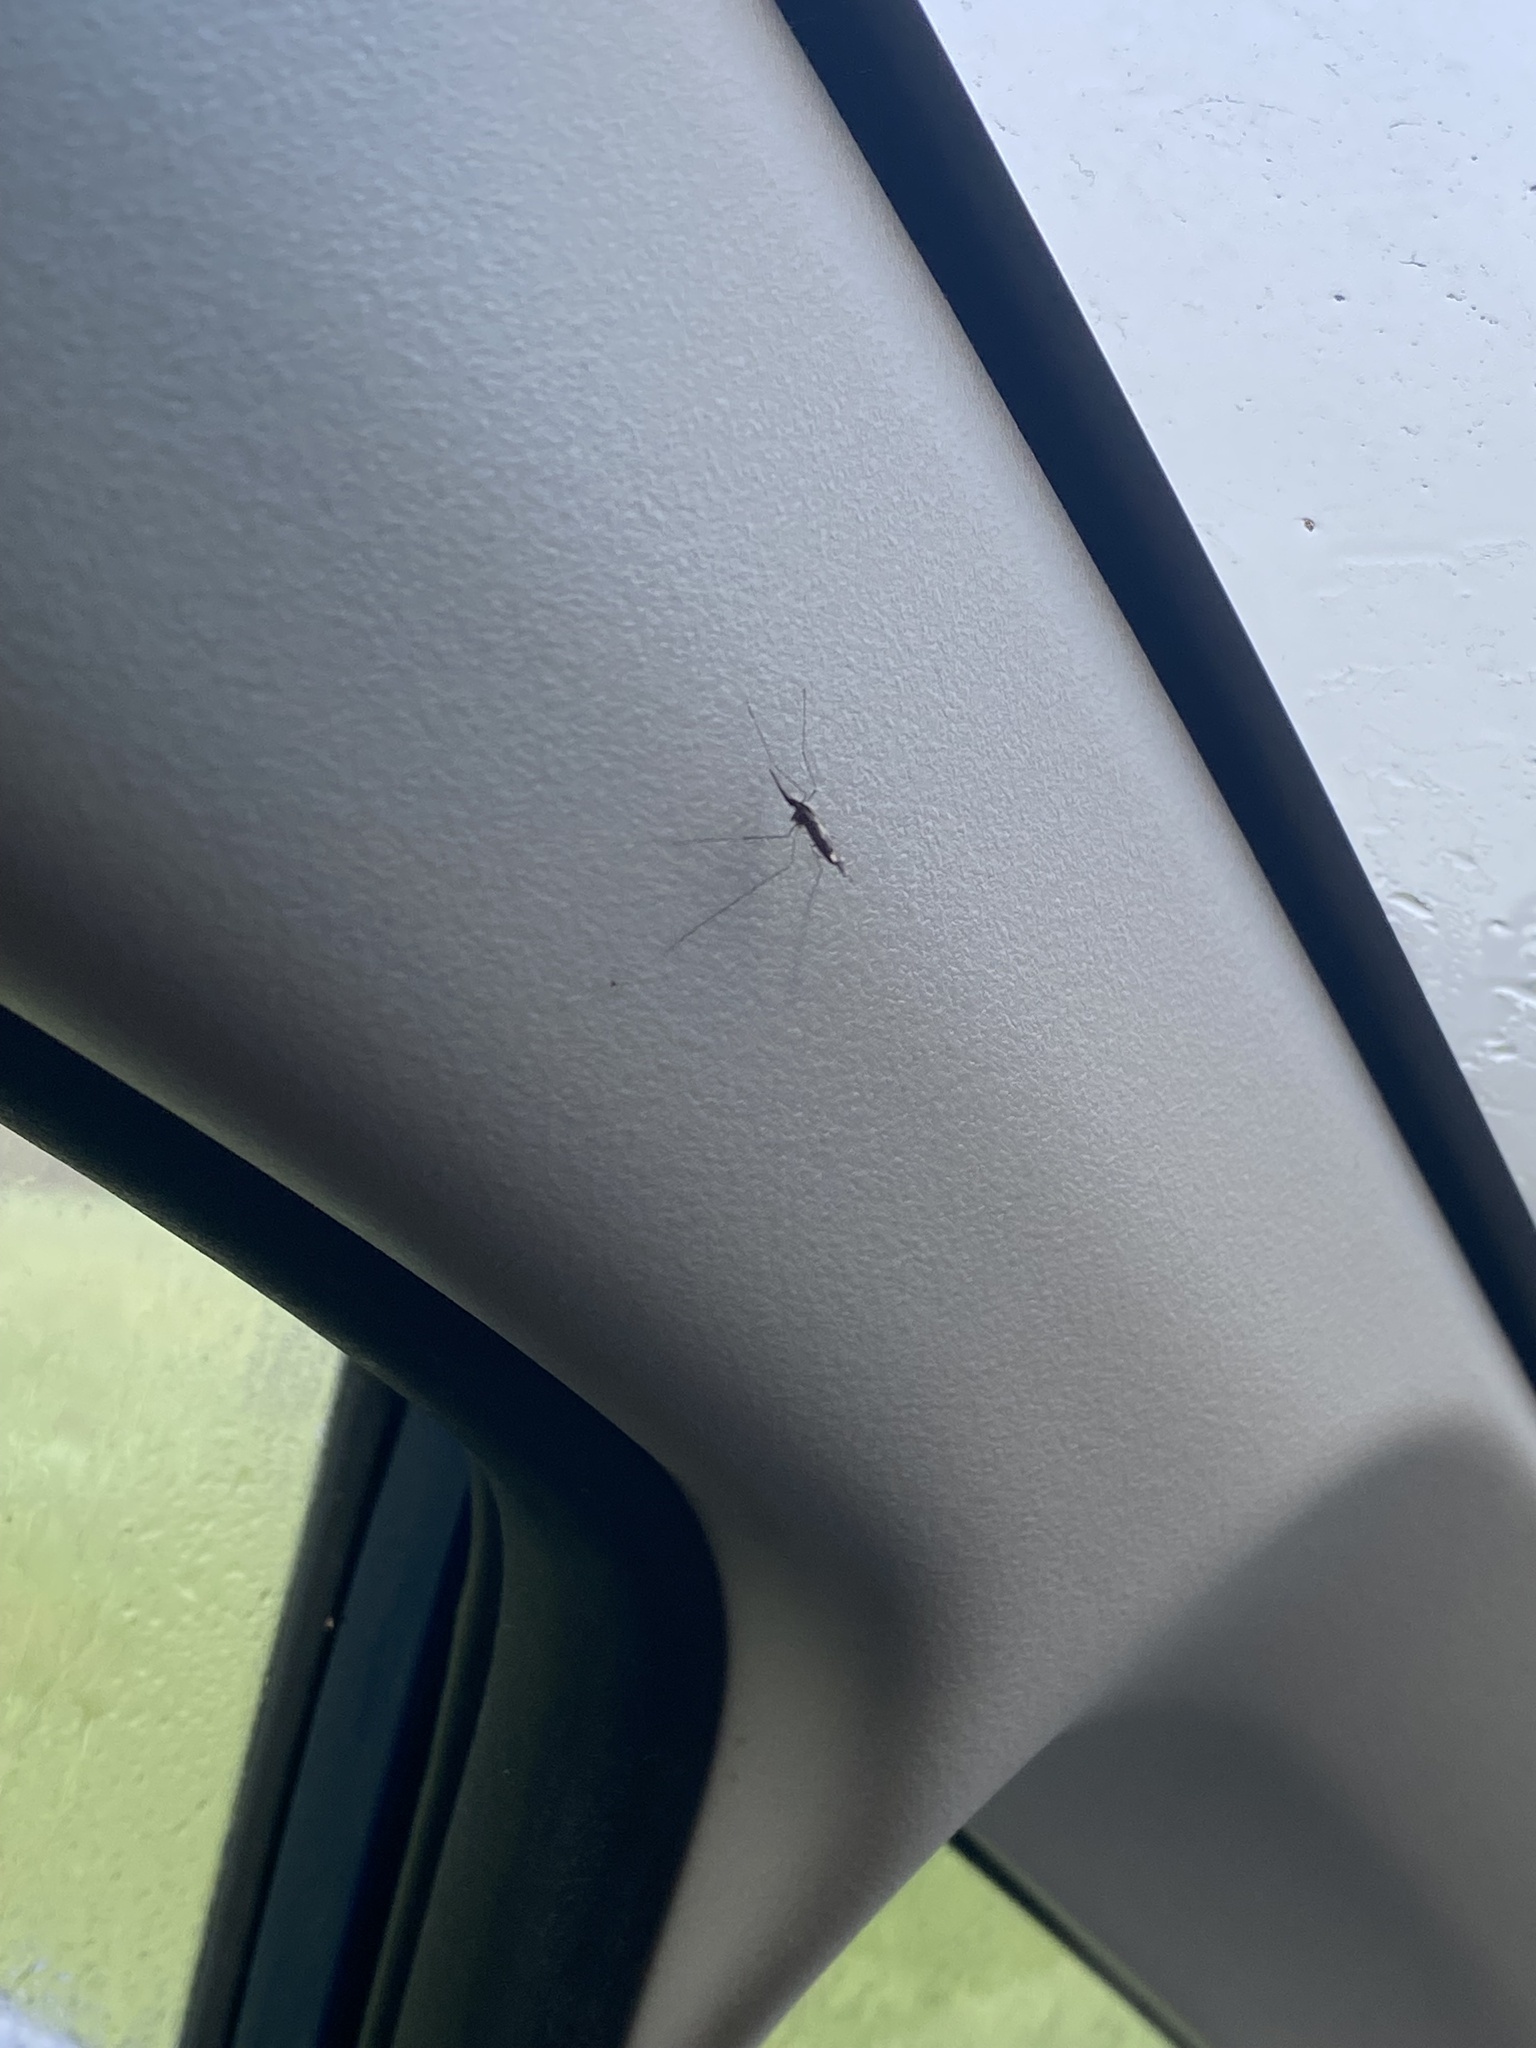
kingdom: Animalia
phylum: Arthropoda
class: Insecta
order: Diptera
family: Culicidae
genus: Anopheles
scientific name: Anopheles punctipennis
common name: Woodland malaria mosquito
